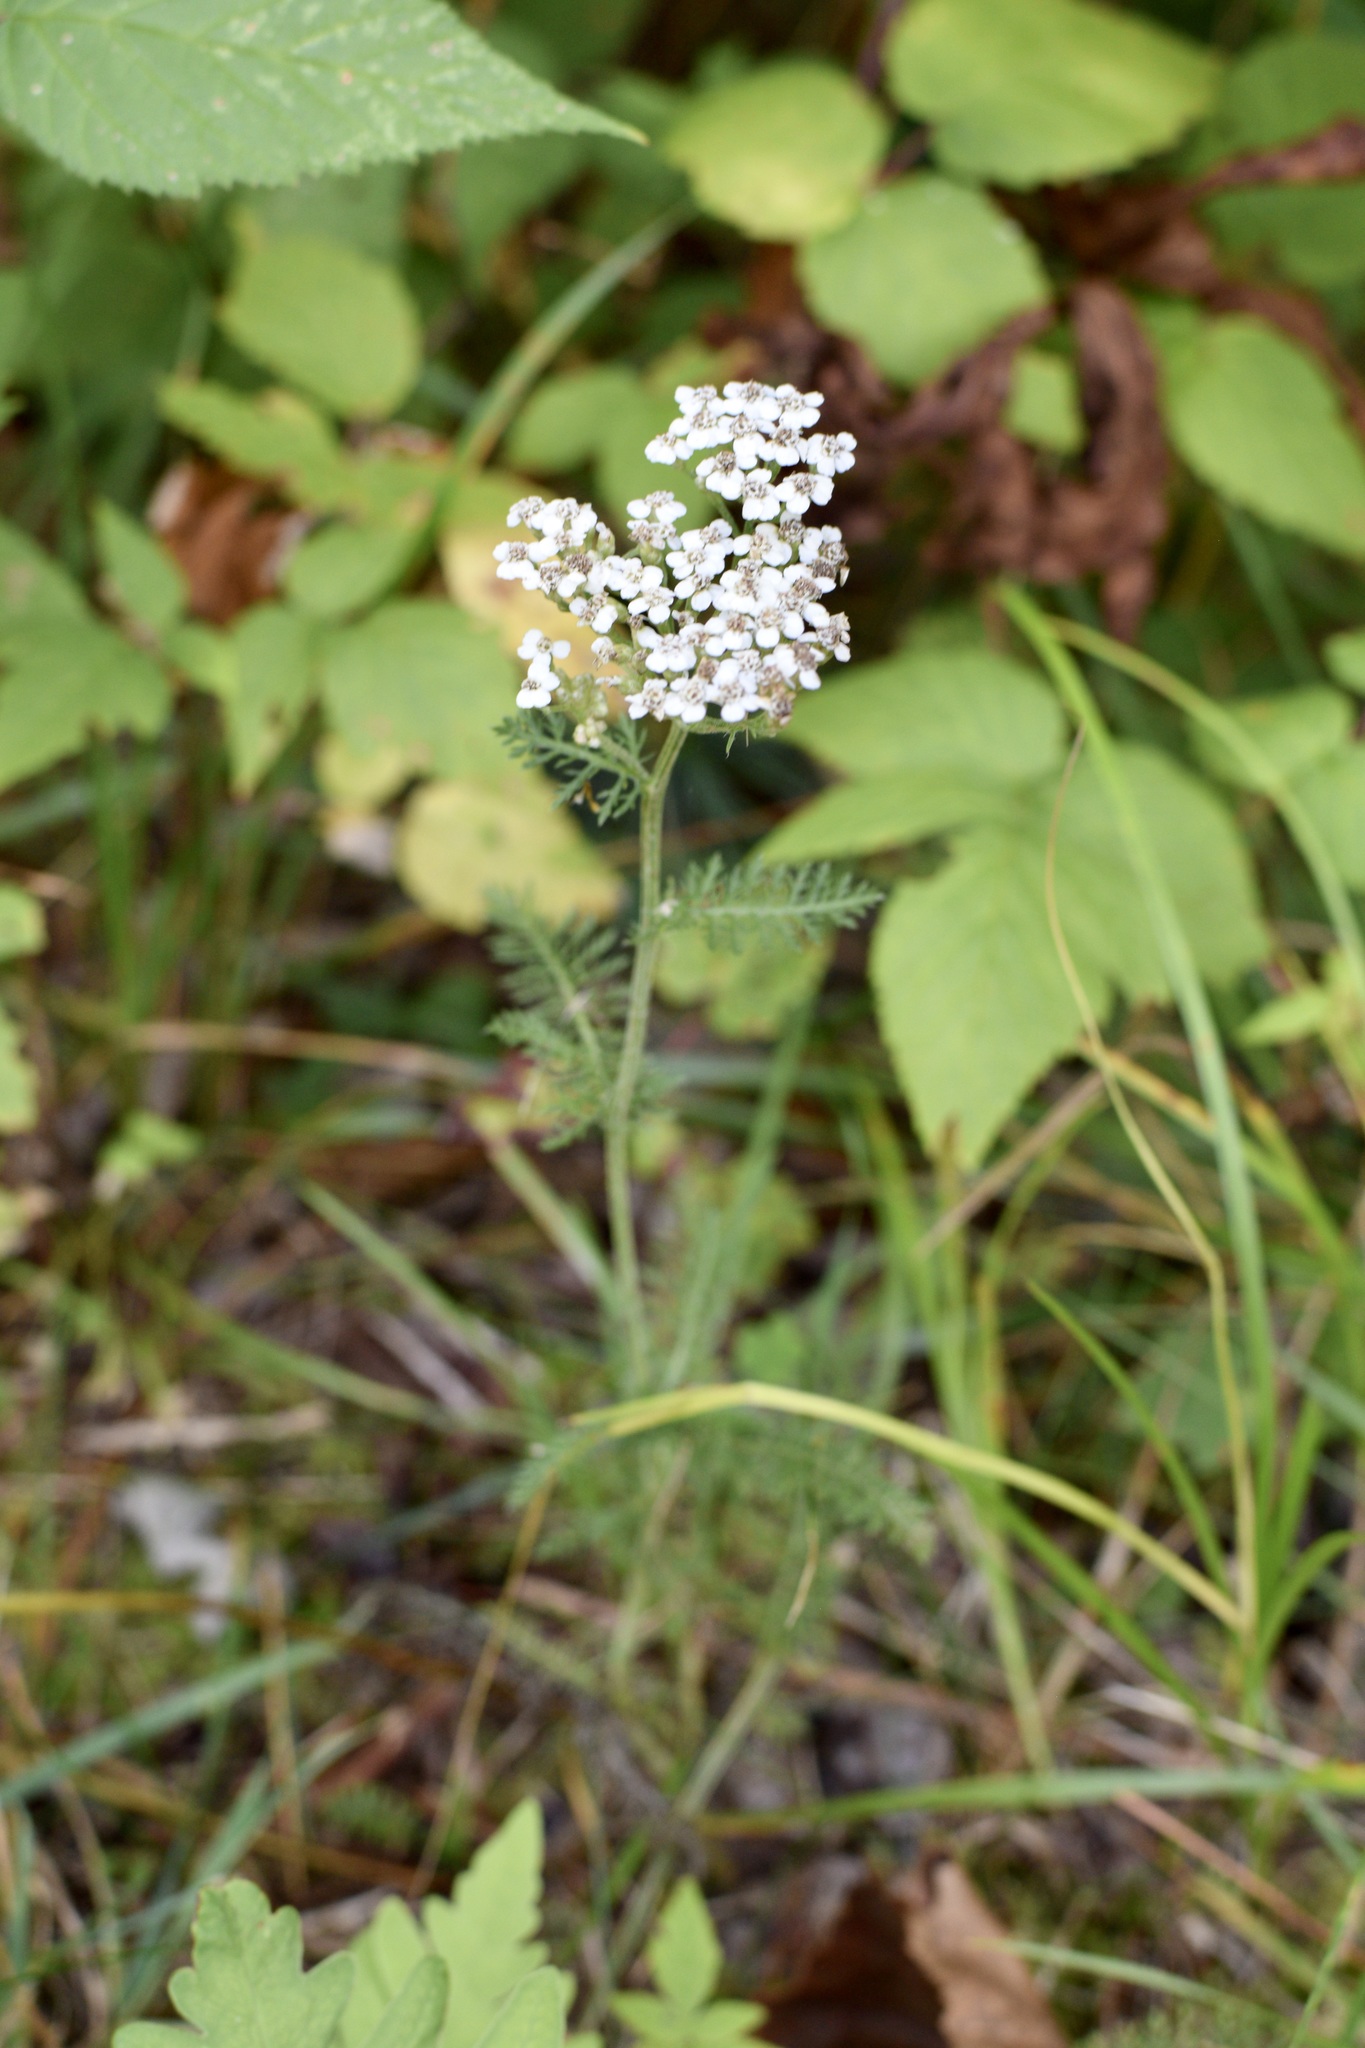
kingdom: Plantae
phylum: Tracheophyta
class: Magnoliopsida
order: Asterales
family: Asteraceae
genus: Achillea
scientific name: Achillea millefolium
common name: Yarrow
